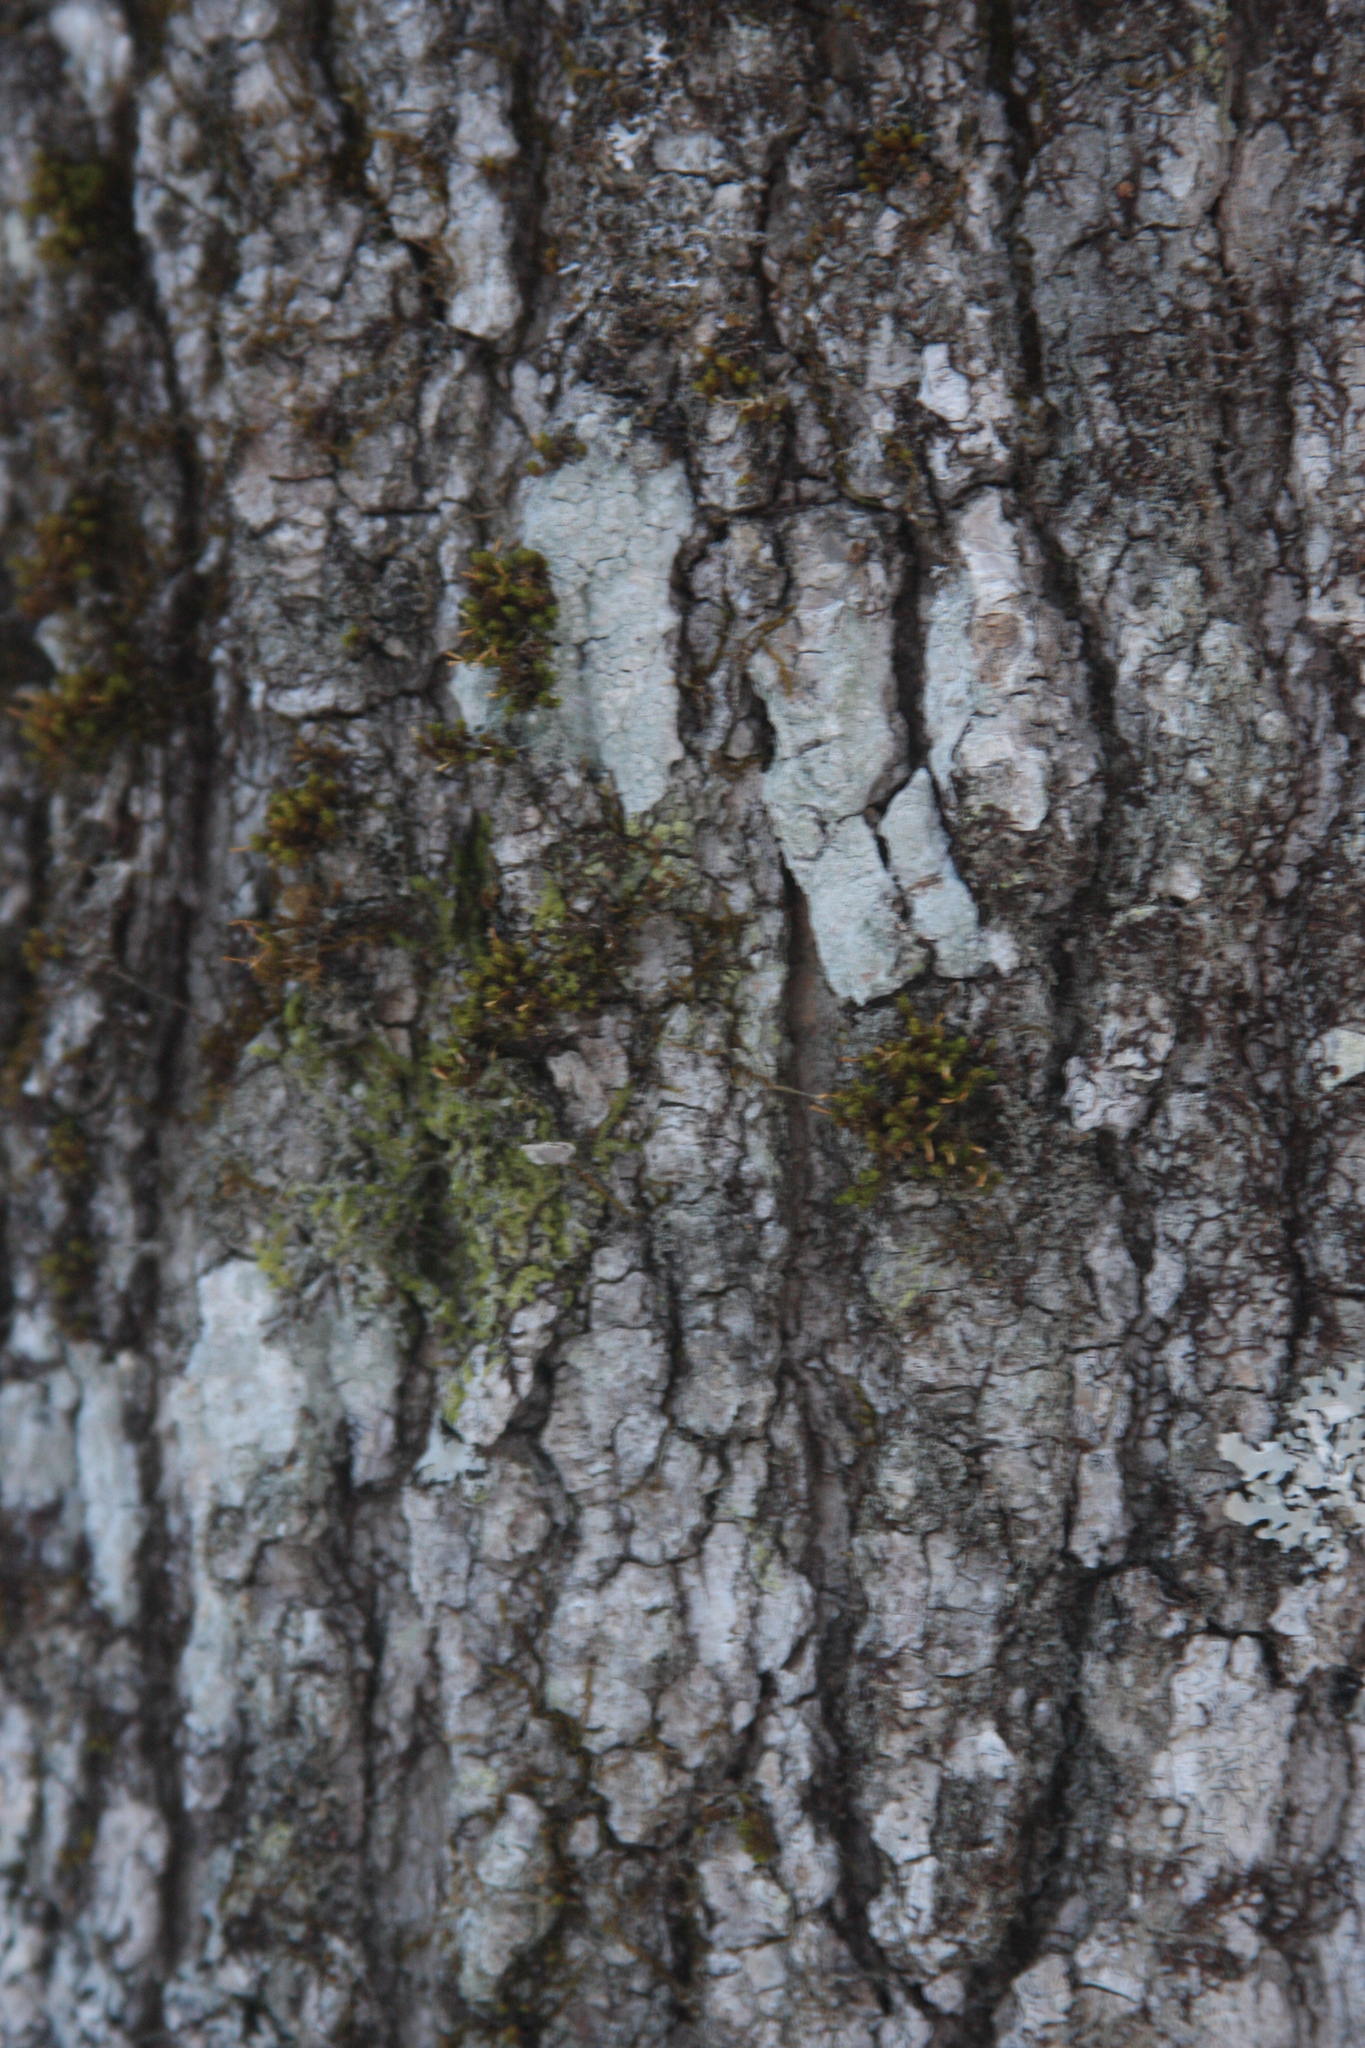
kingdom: Plantae
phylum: Bryophyta
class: Bryopsida
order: Orthotrichales
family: Orthotrichaceae
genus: Ulota
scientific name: Ulota crispa
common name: Crisped pincushion moss
